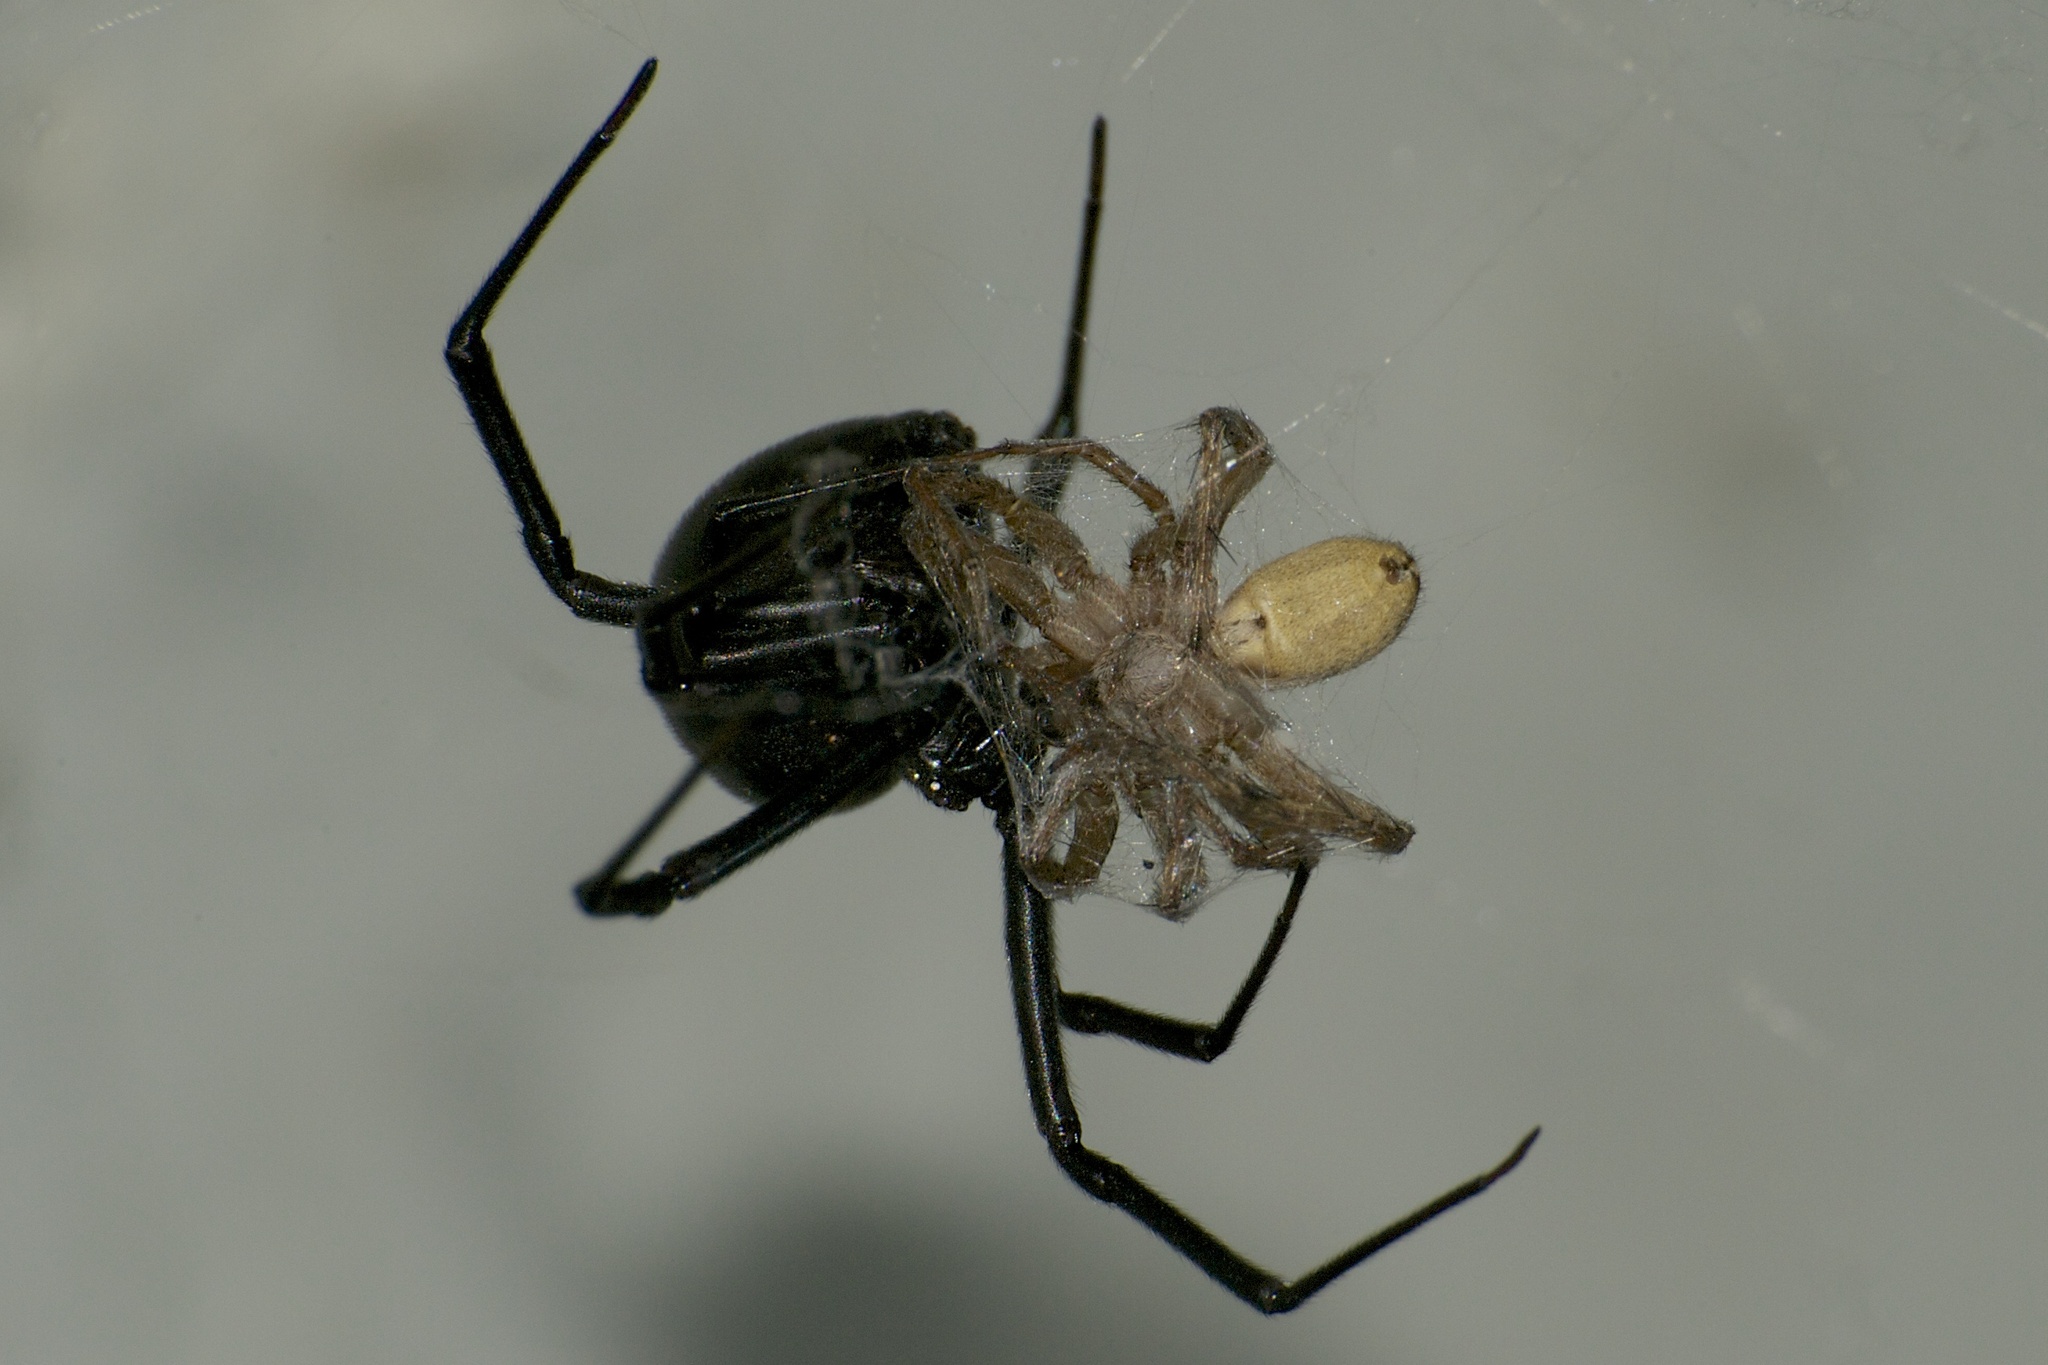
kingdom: Animalia
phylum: Arthropoda
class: Arachnida
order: Araneae
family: Theridiidae
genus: Latrodectus
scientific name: Latrodectus hesperus
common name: Western black widow
